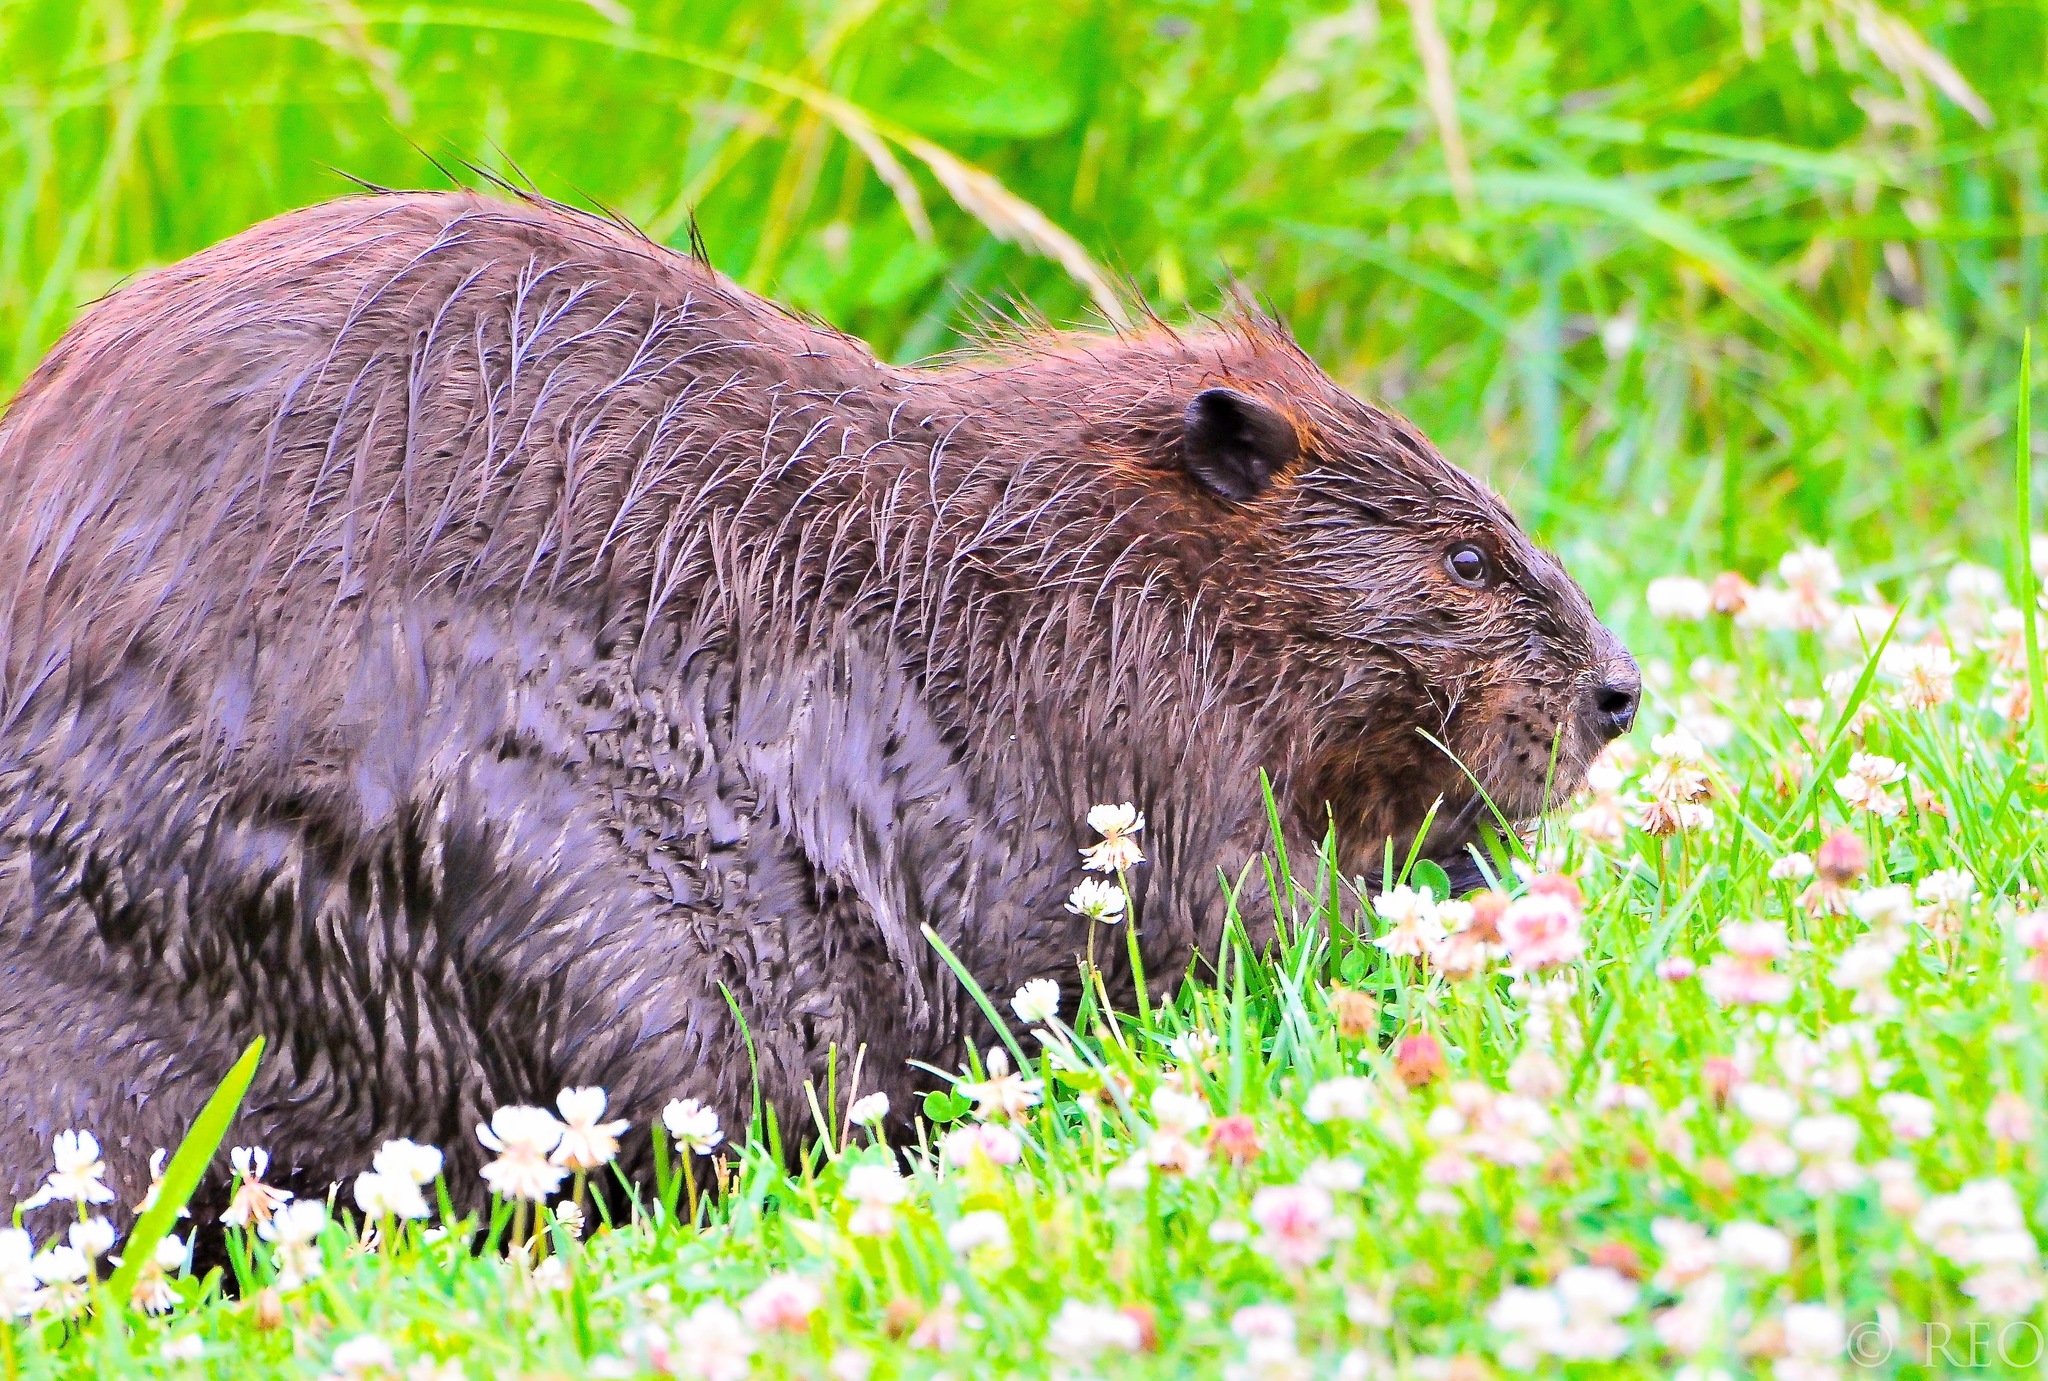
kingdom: Animalia
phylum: Chordata
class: Mammalia
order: Rodentia
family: Castoridae
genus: Castor
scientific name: Castor canadensis
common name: American beaver
